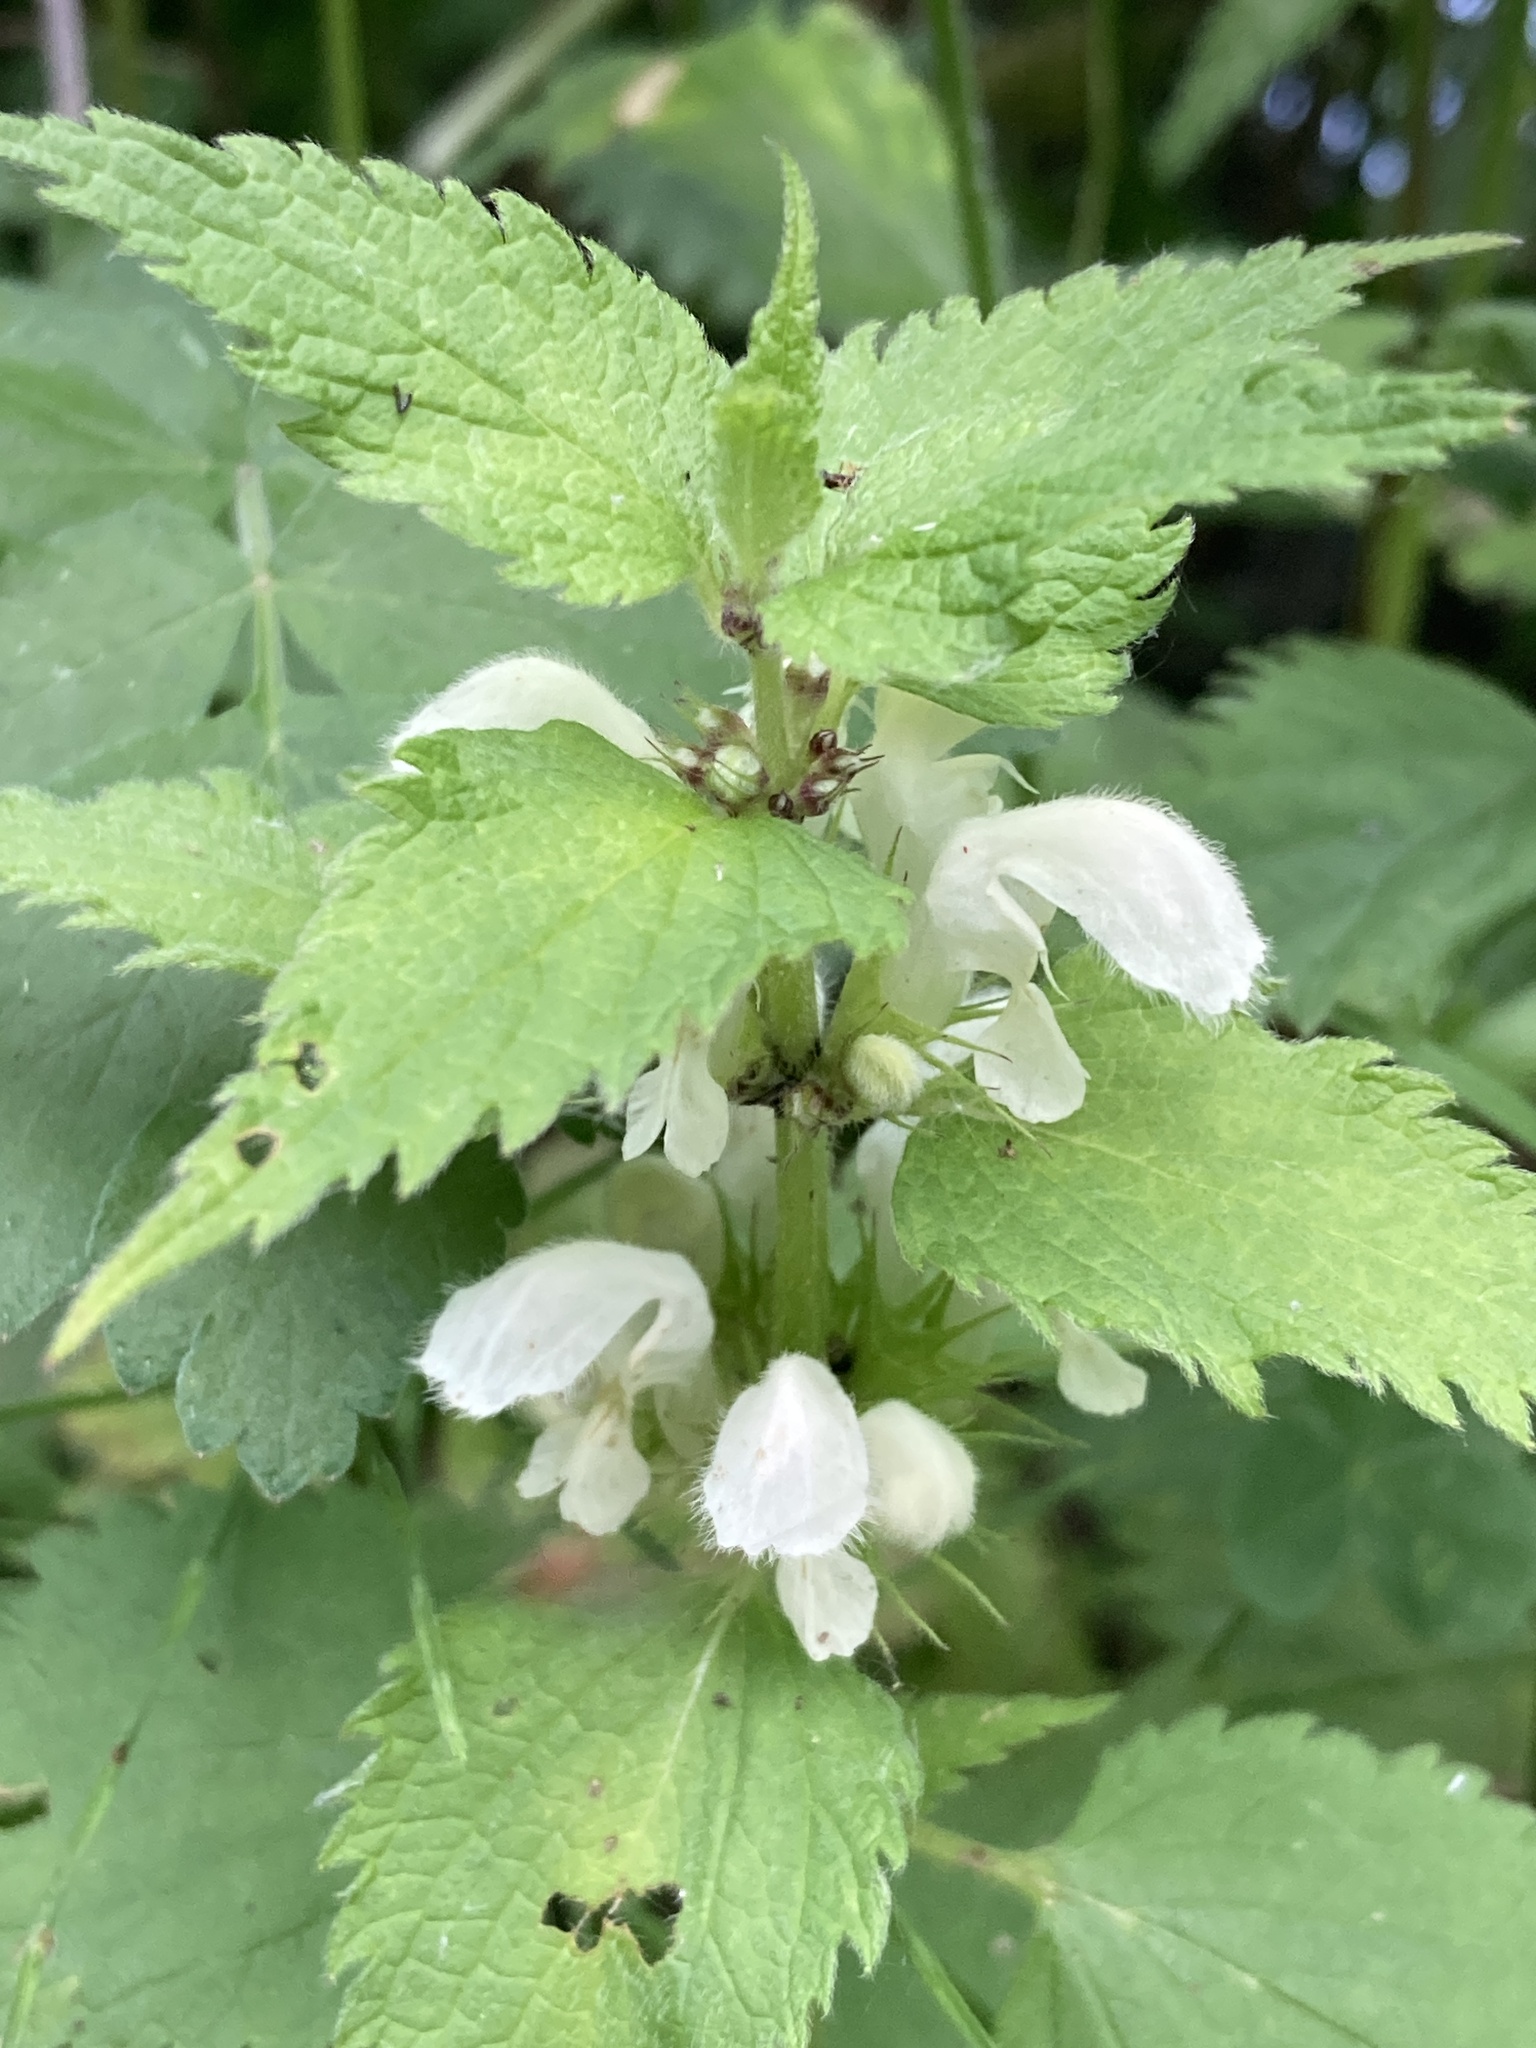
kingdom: Plantae
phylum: Tracheophyta
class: Magnoliopsida
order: Lamiales
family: Lamiaceae
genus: Lamium
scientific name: Lamium album
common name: White dead-nettle
